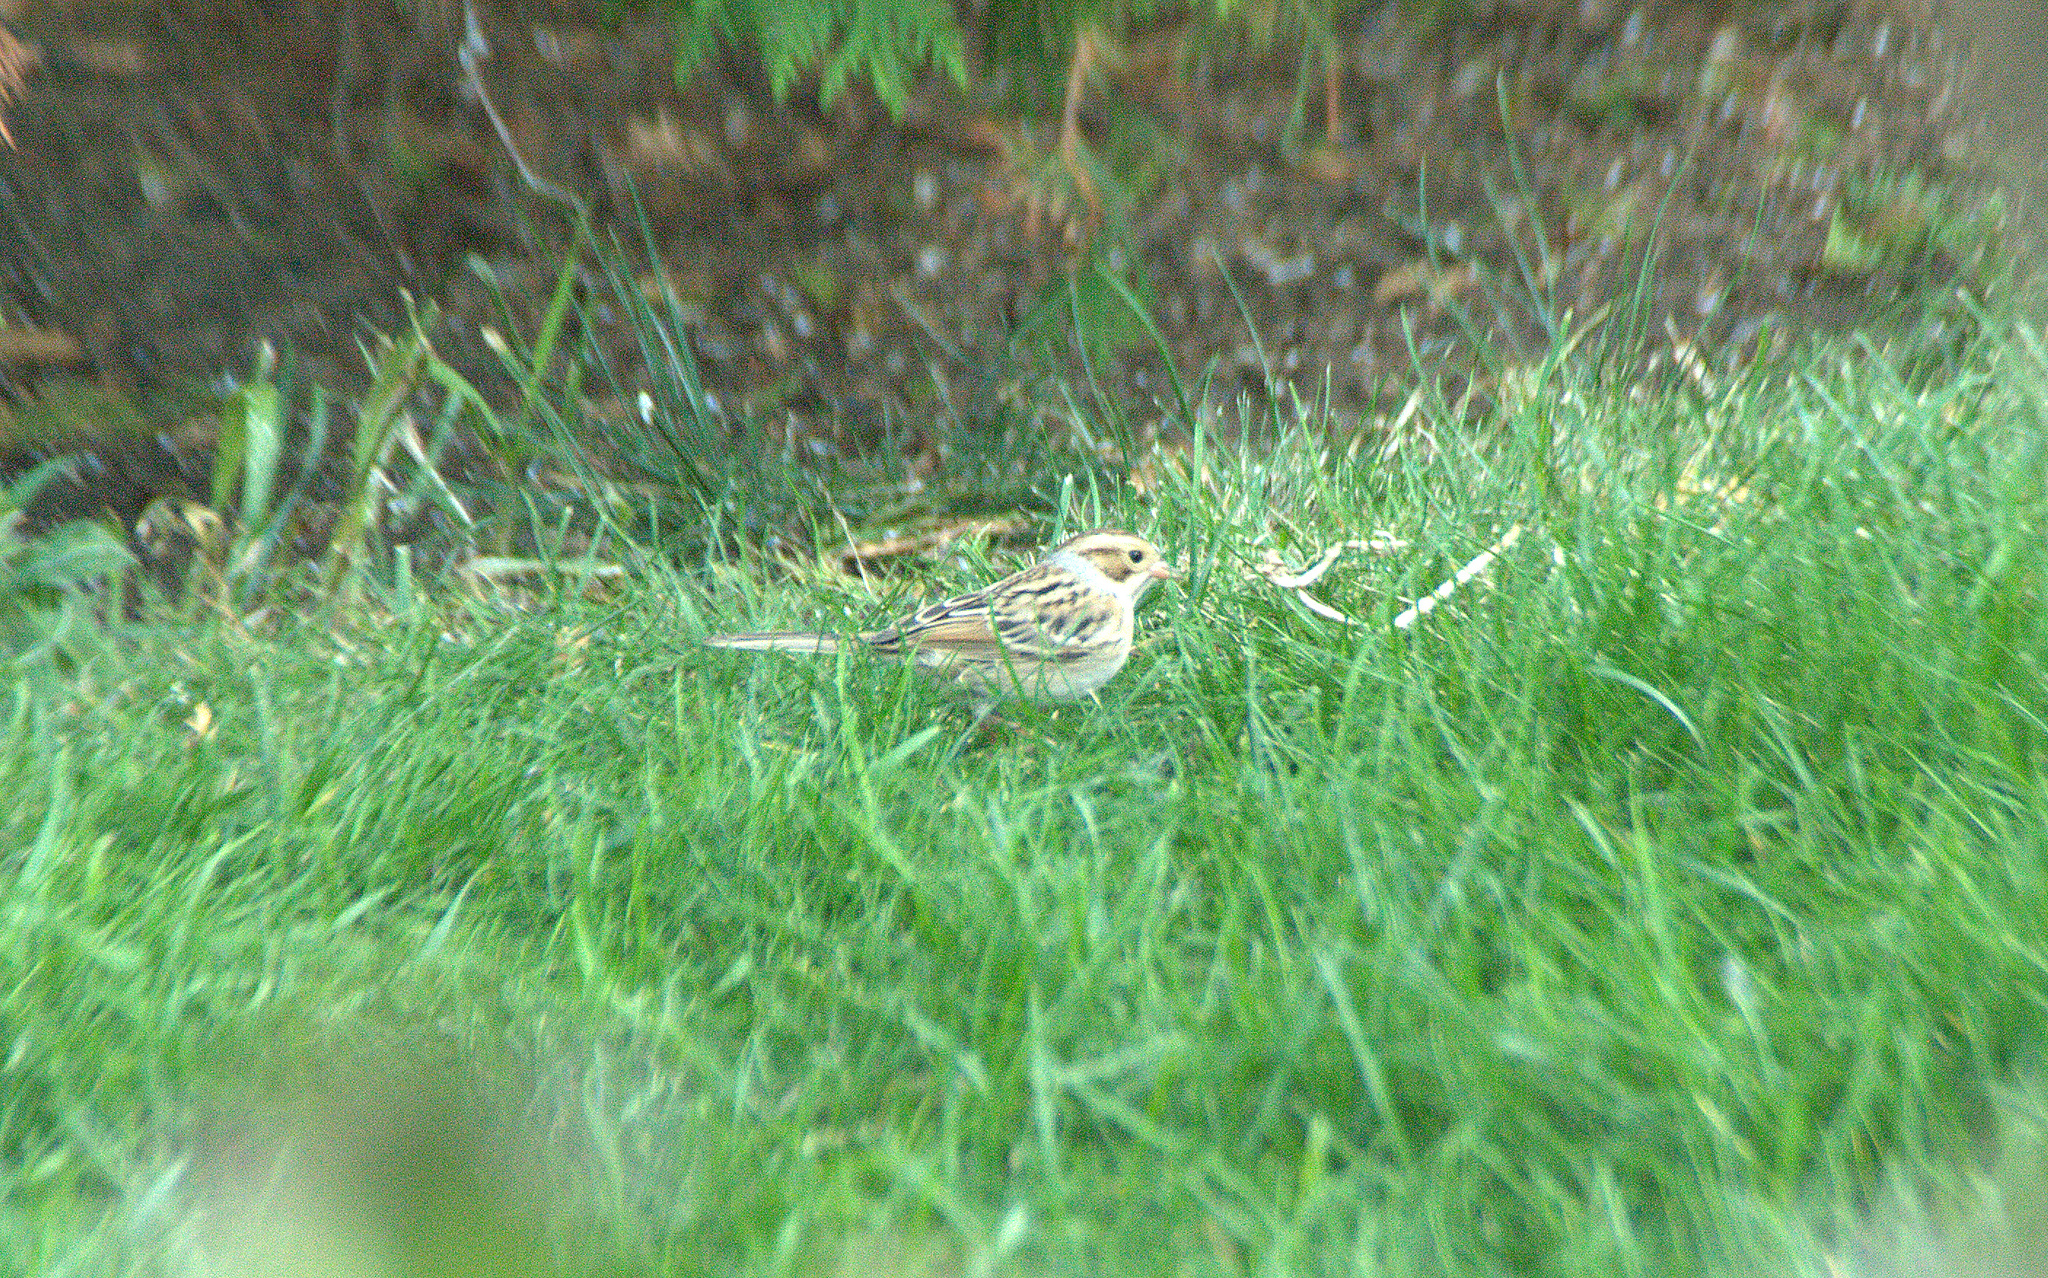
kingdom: Animalia
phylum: Chordata
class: Aves
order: Passeriformes
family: Passerellidae
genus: Spizella
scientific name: Spizella pallida
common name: Clay-colored sparrow
